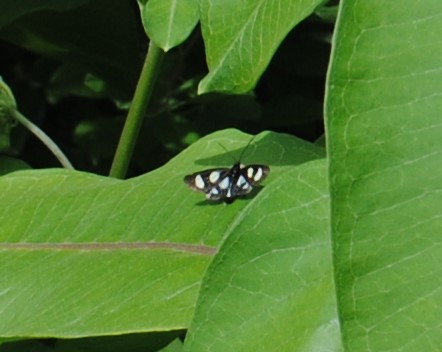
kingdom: Animalia
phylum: Arthropoda
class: Insecta
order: Lepidoptera
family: Noctuidae
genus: Alypia
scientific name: Alypia octomaculata
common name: Eight-spotted forester
